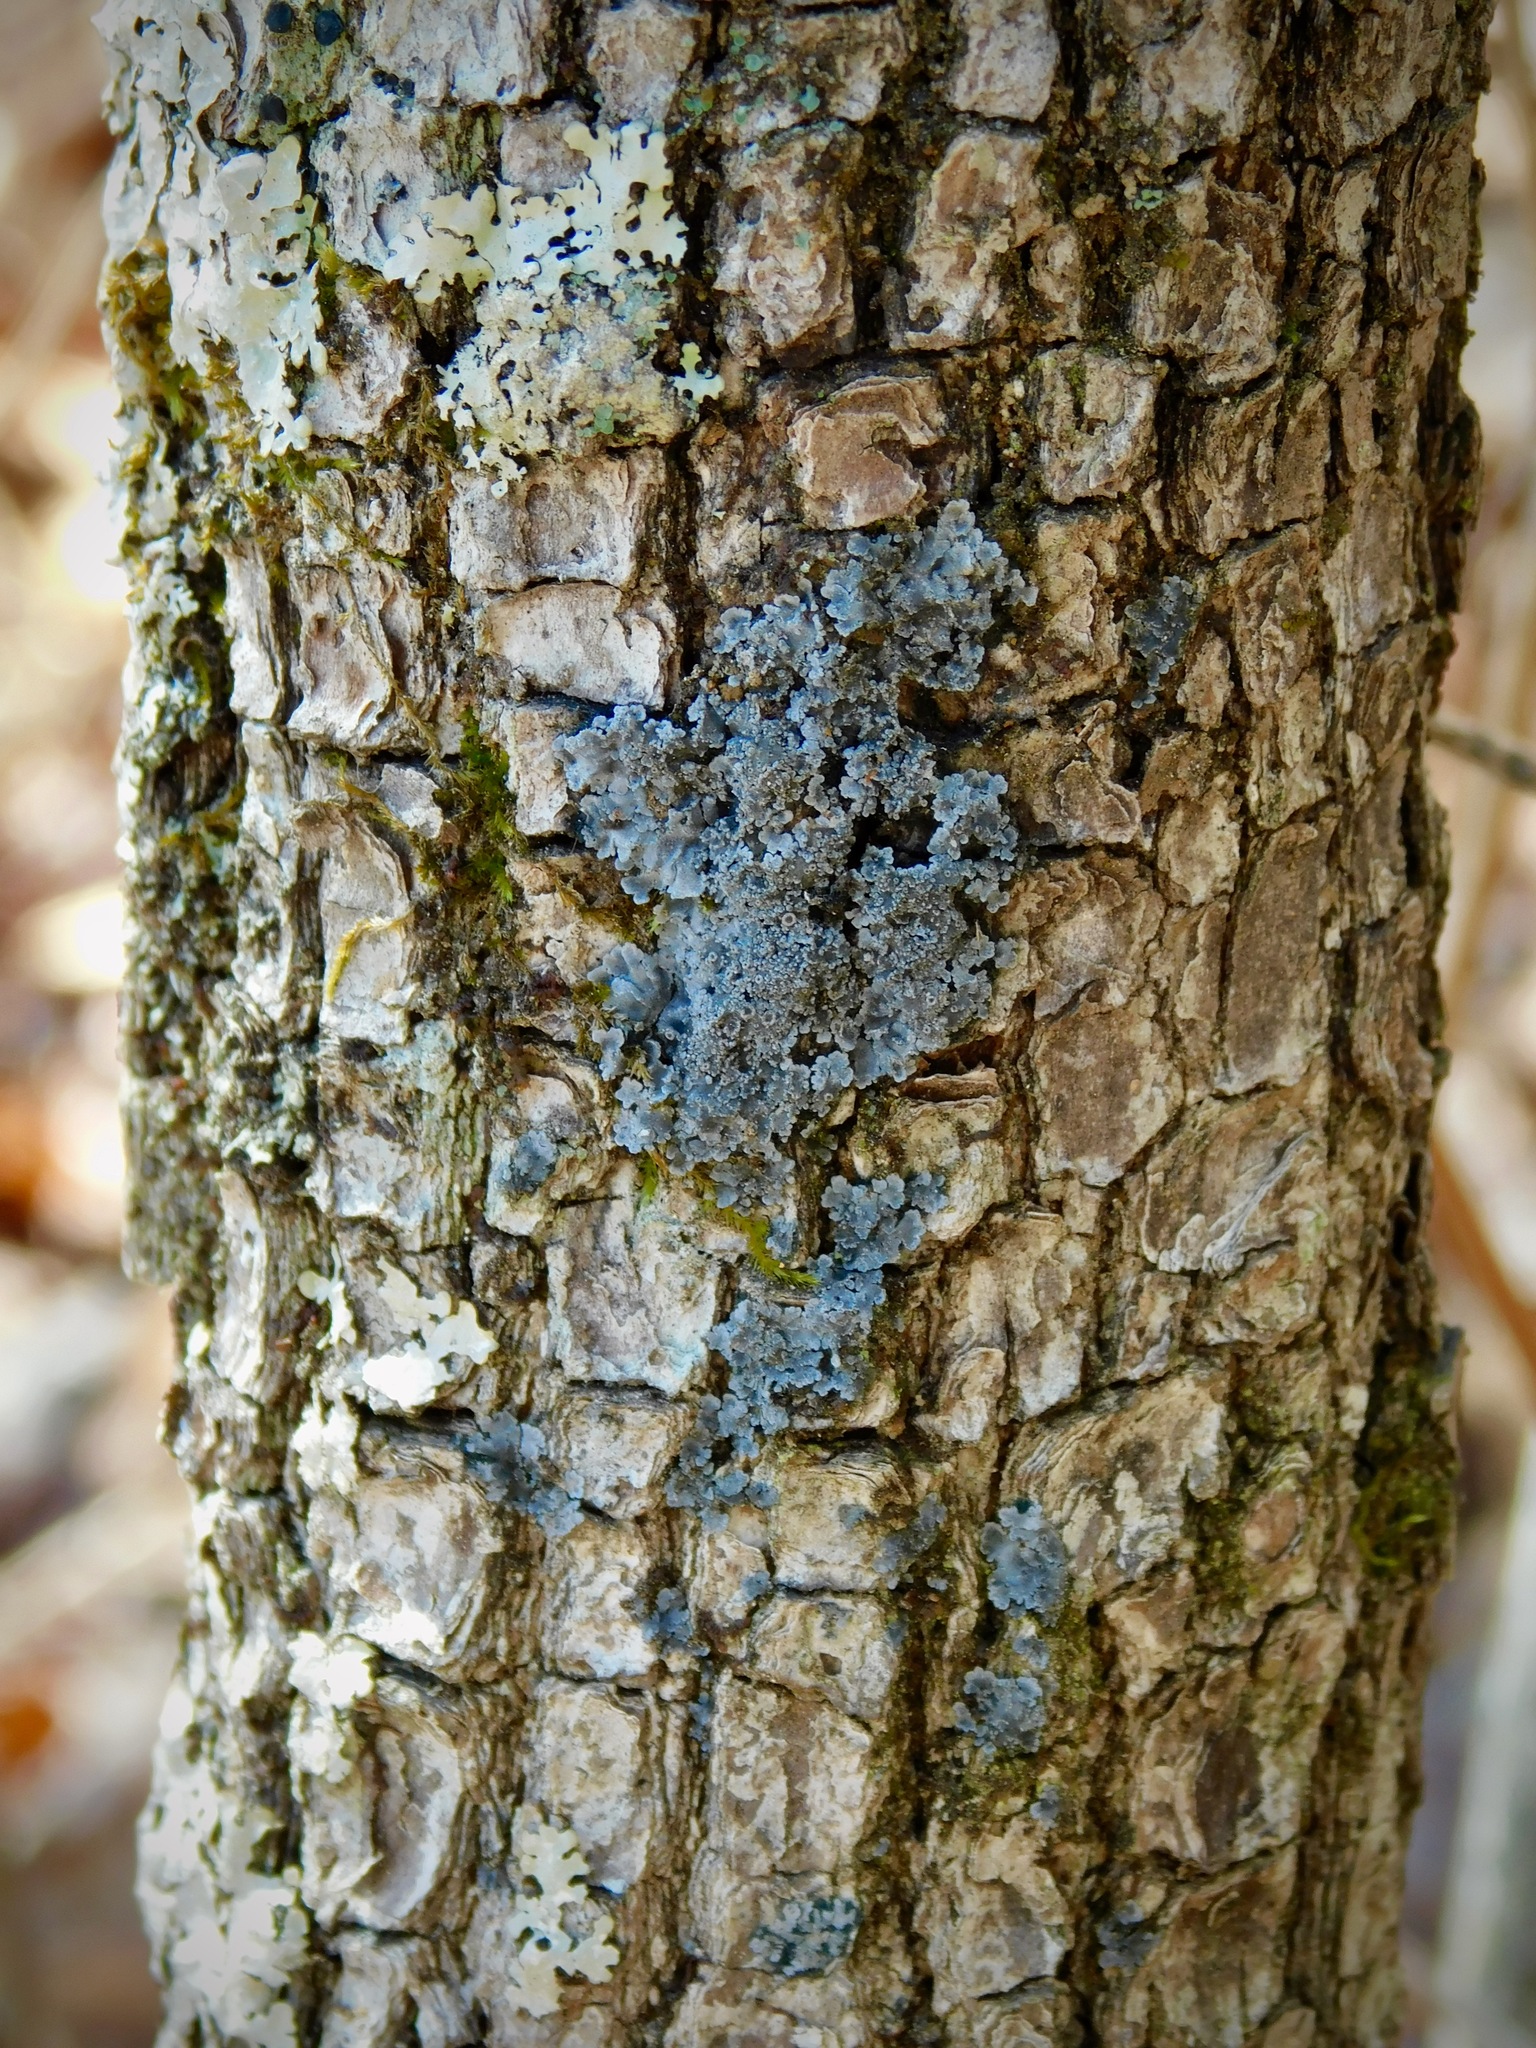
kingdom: Fungi
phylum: Ascomycota
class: Lecanoromycetes
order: Peltigerales
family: Pannariaceae
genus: Pannaria
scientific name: Pannaria conoplea
